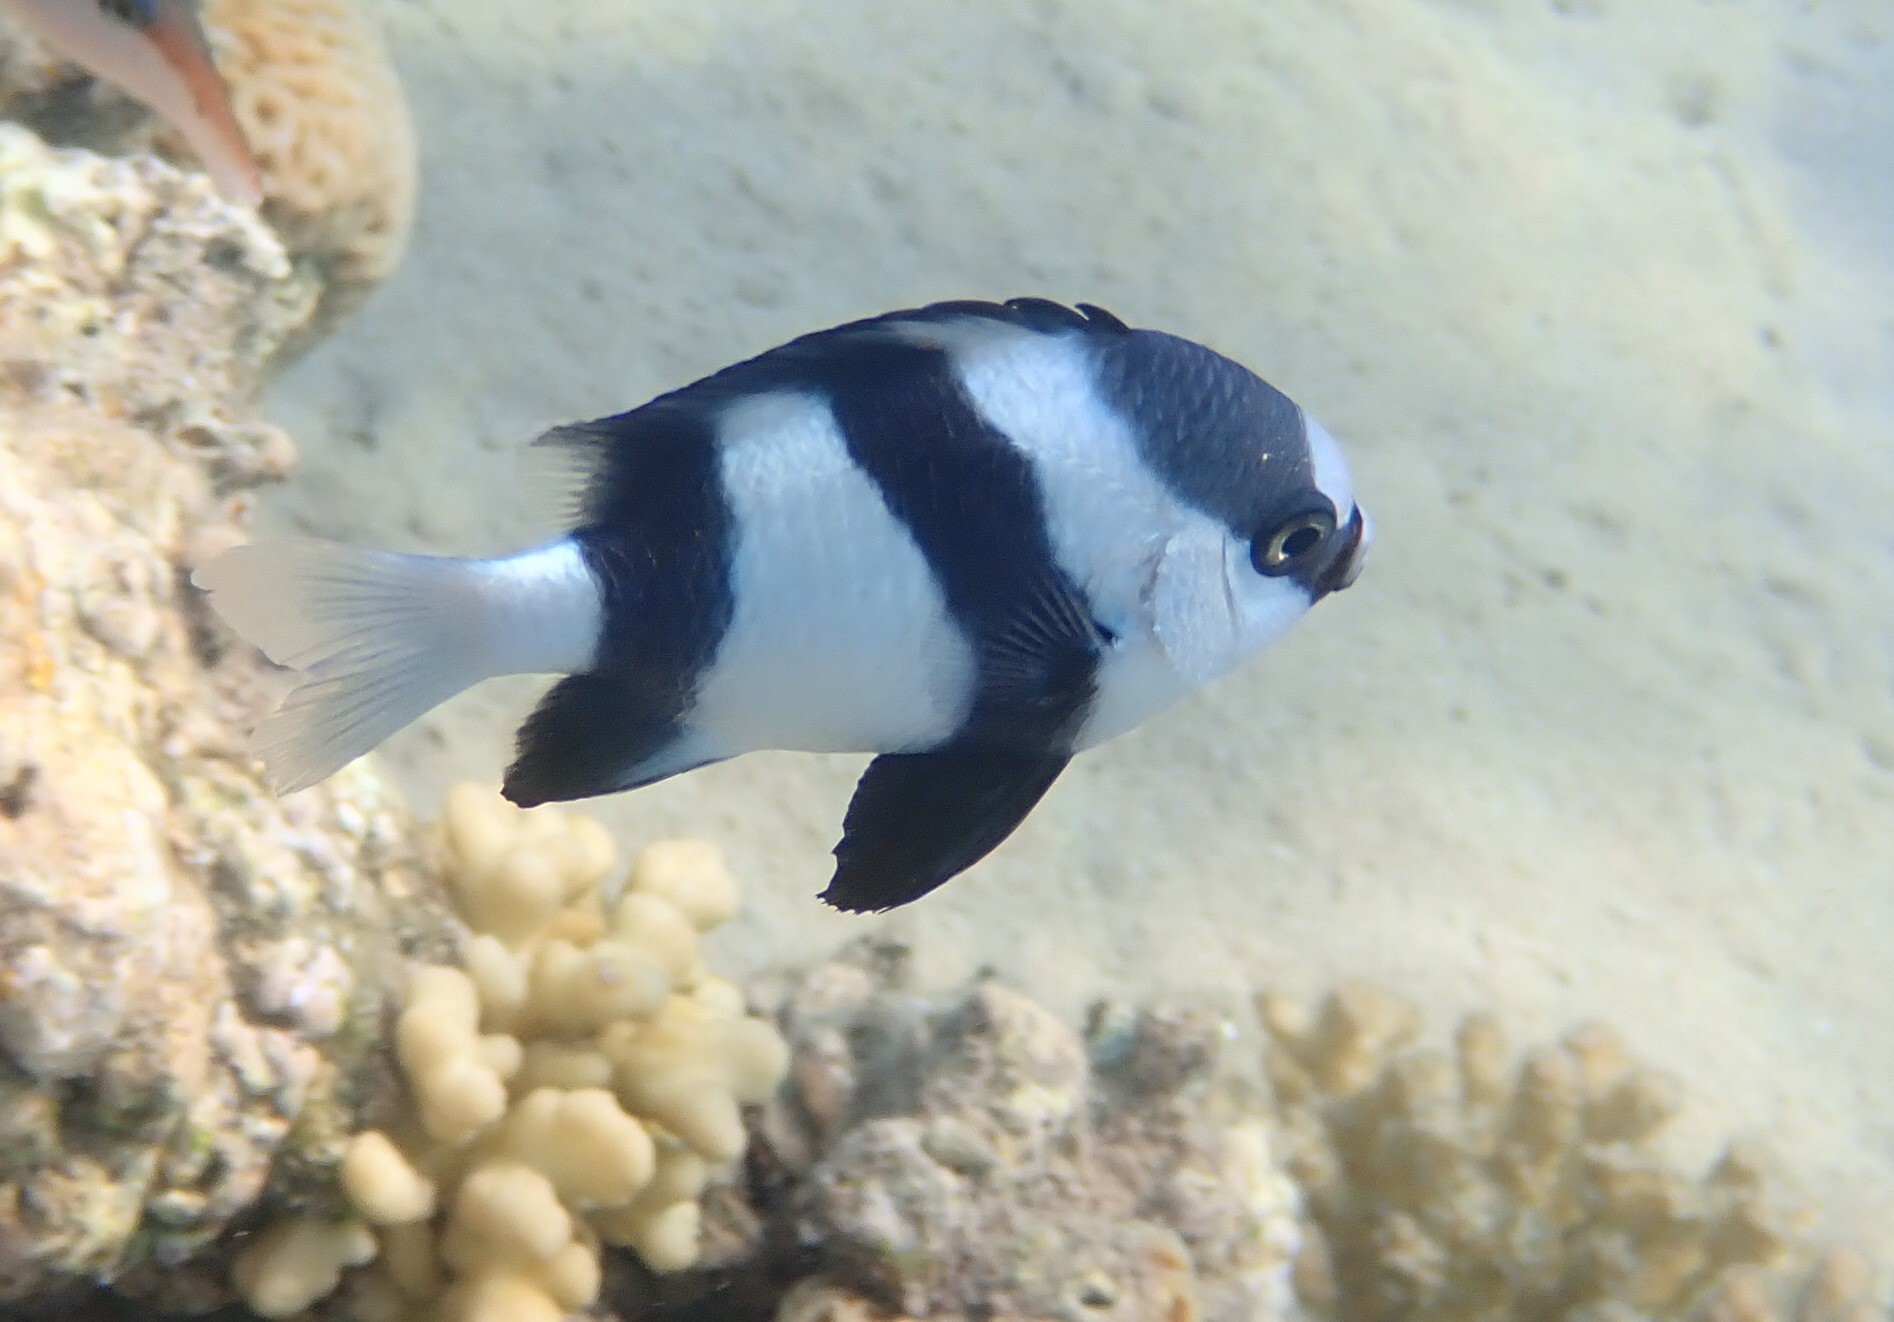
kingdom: Animalia
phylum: Chordata
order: Perciformes
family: Pomacentridae
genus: Dascyllus
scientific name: Dascyllus abudafur
